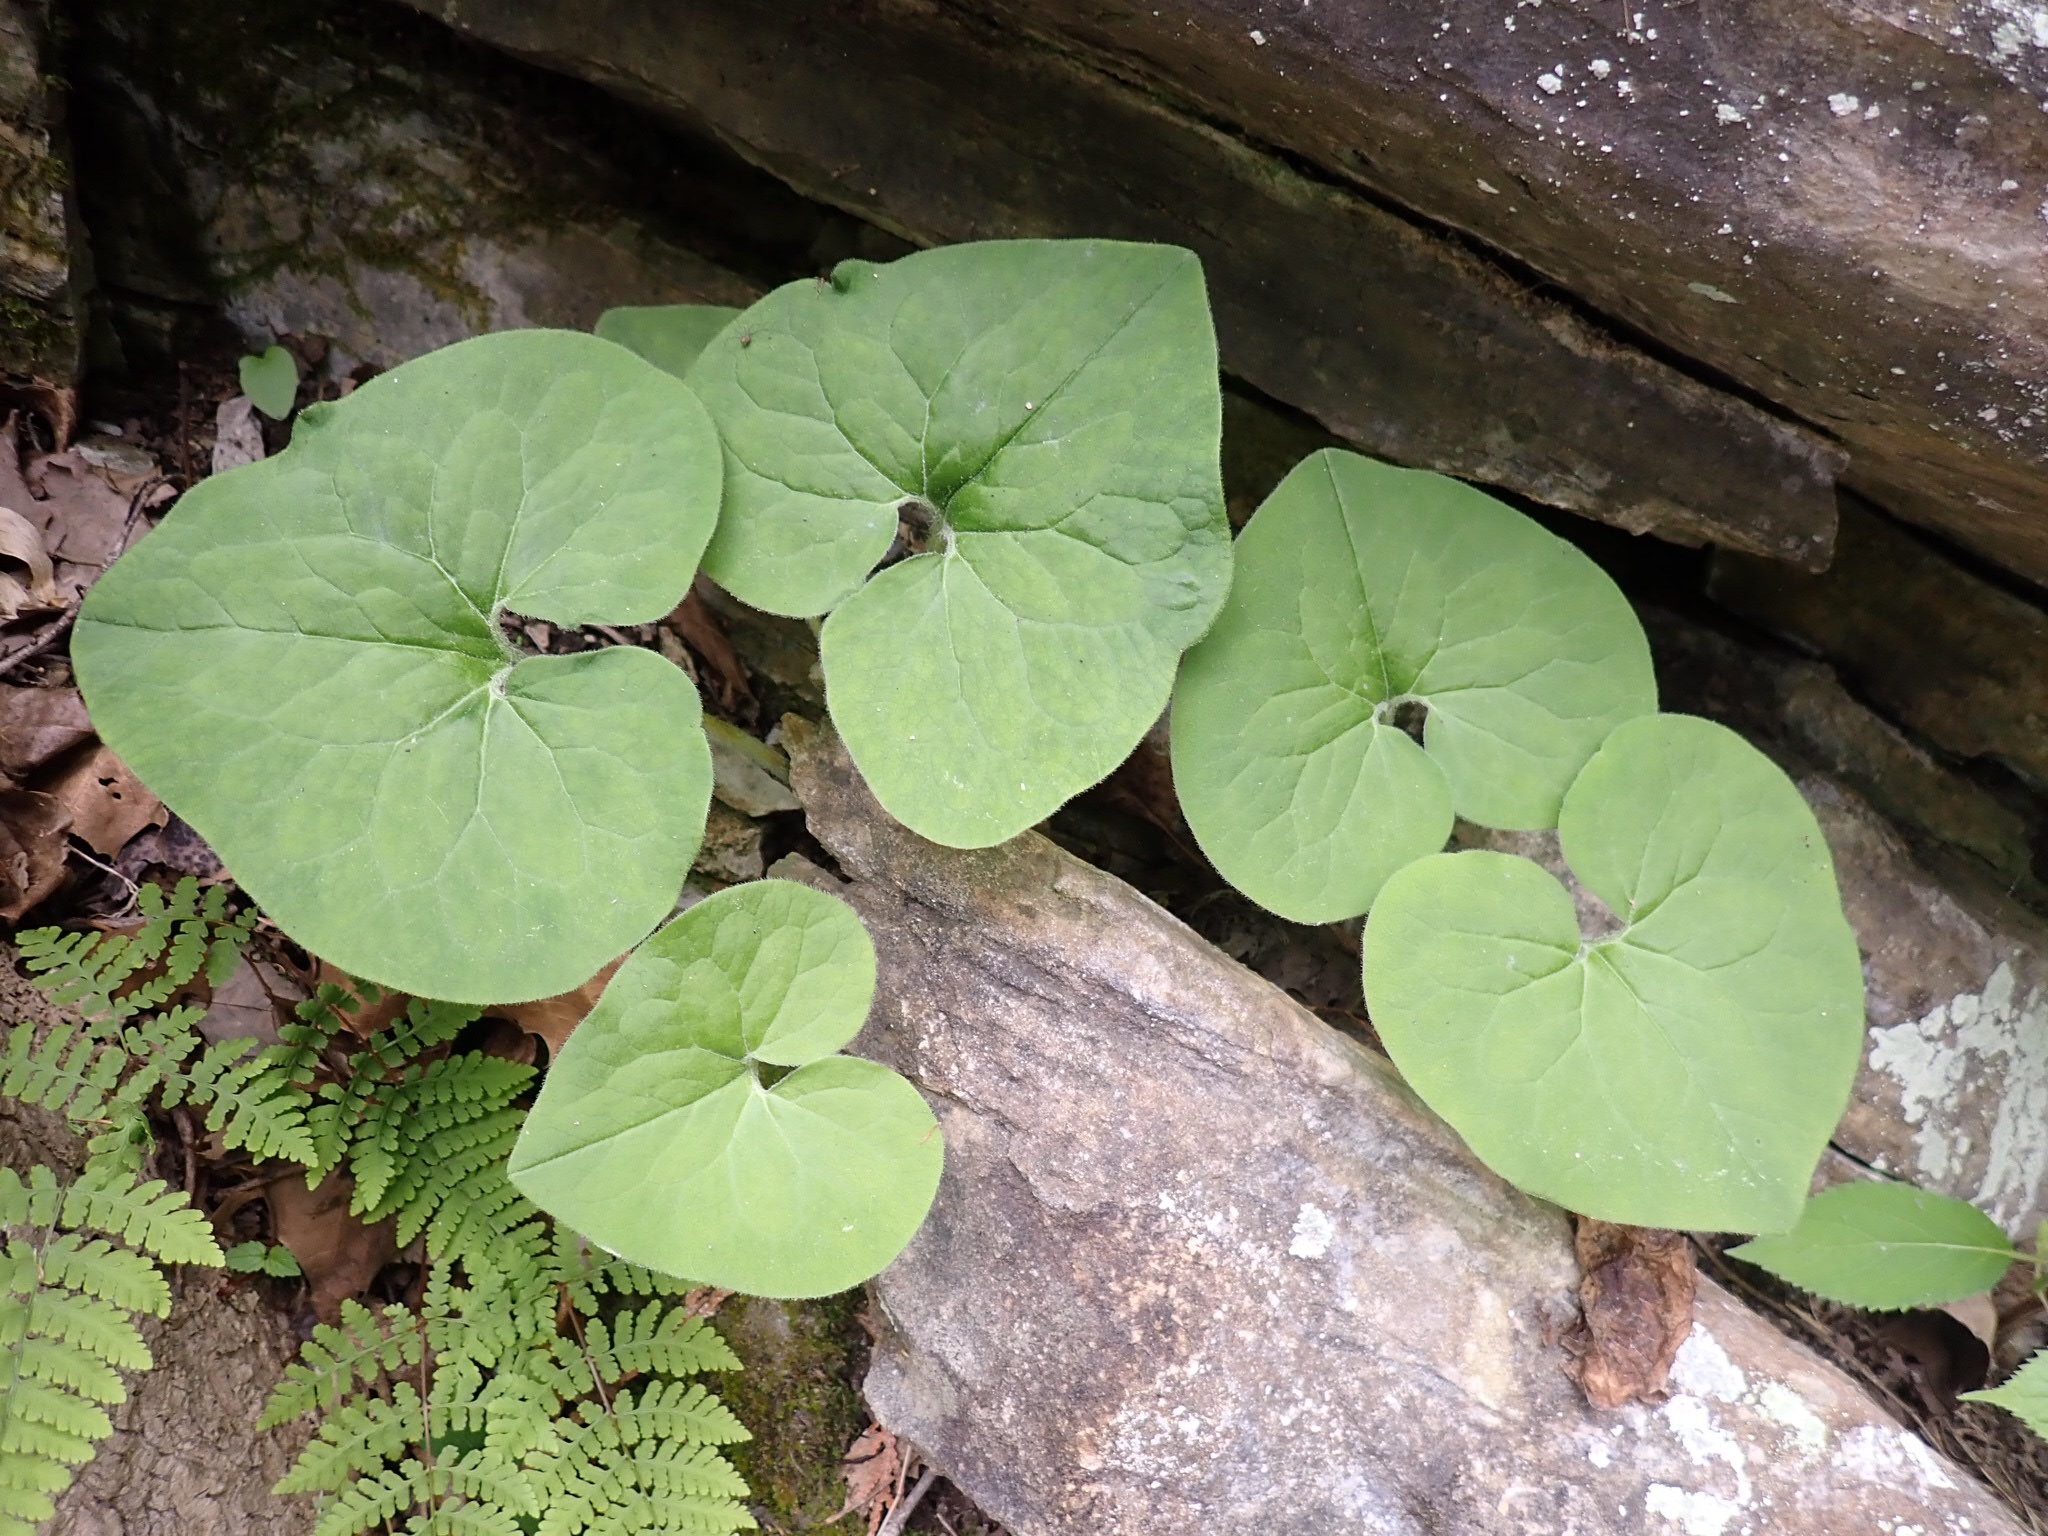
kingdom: Plantae
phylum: Tracheophyta
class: Magnoliopsida
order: Piperales
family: Aristolochiaceae
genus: Asarum
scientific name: Asarum canadense
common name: Wild ginger
